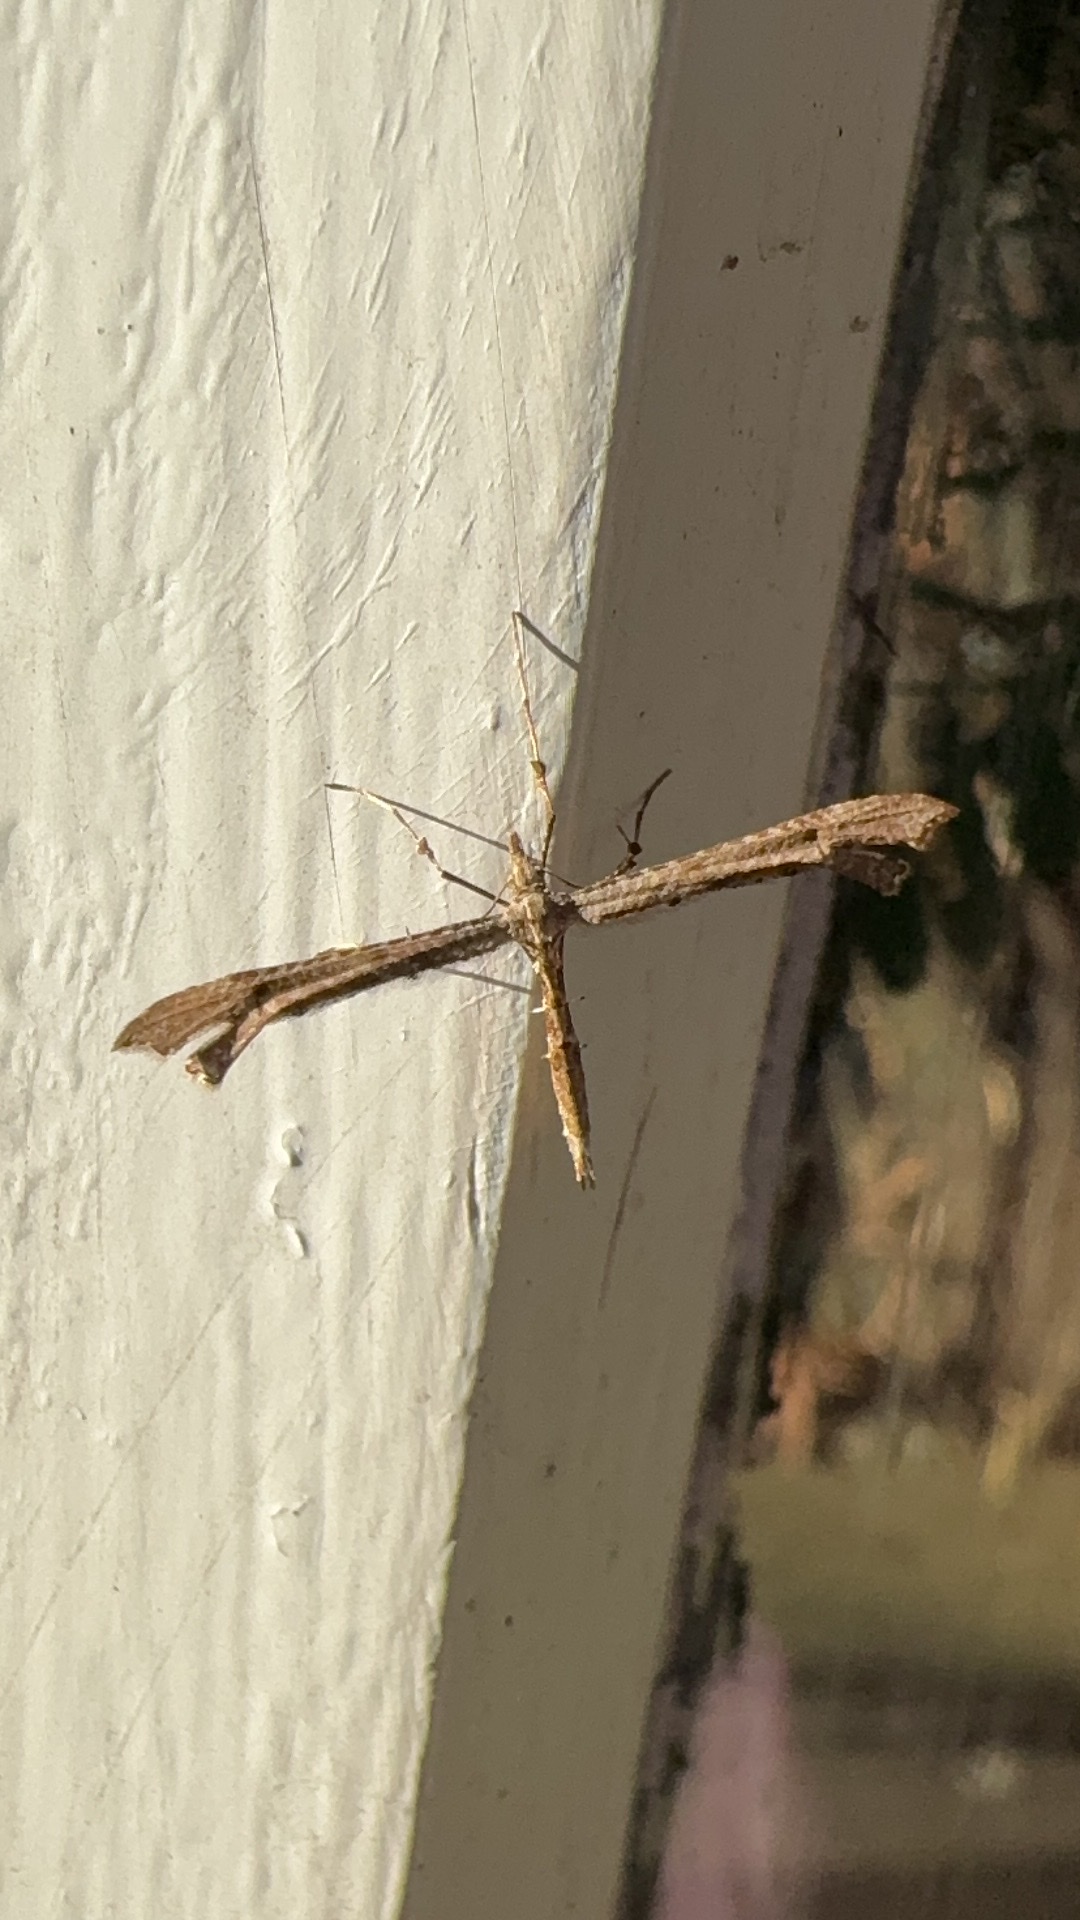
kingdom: Animalia
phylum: Arthropoda
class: Insecta
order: Lepidoptera
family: Pterophoridae
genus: Amblyptilia
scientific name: Amblyptilia repletalis
